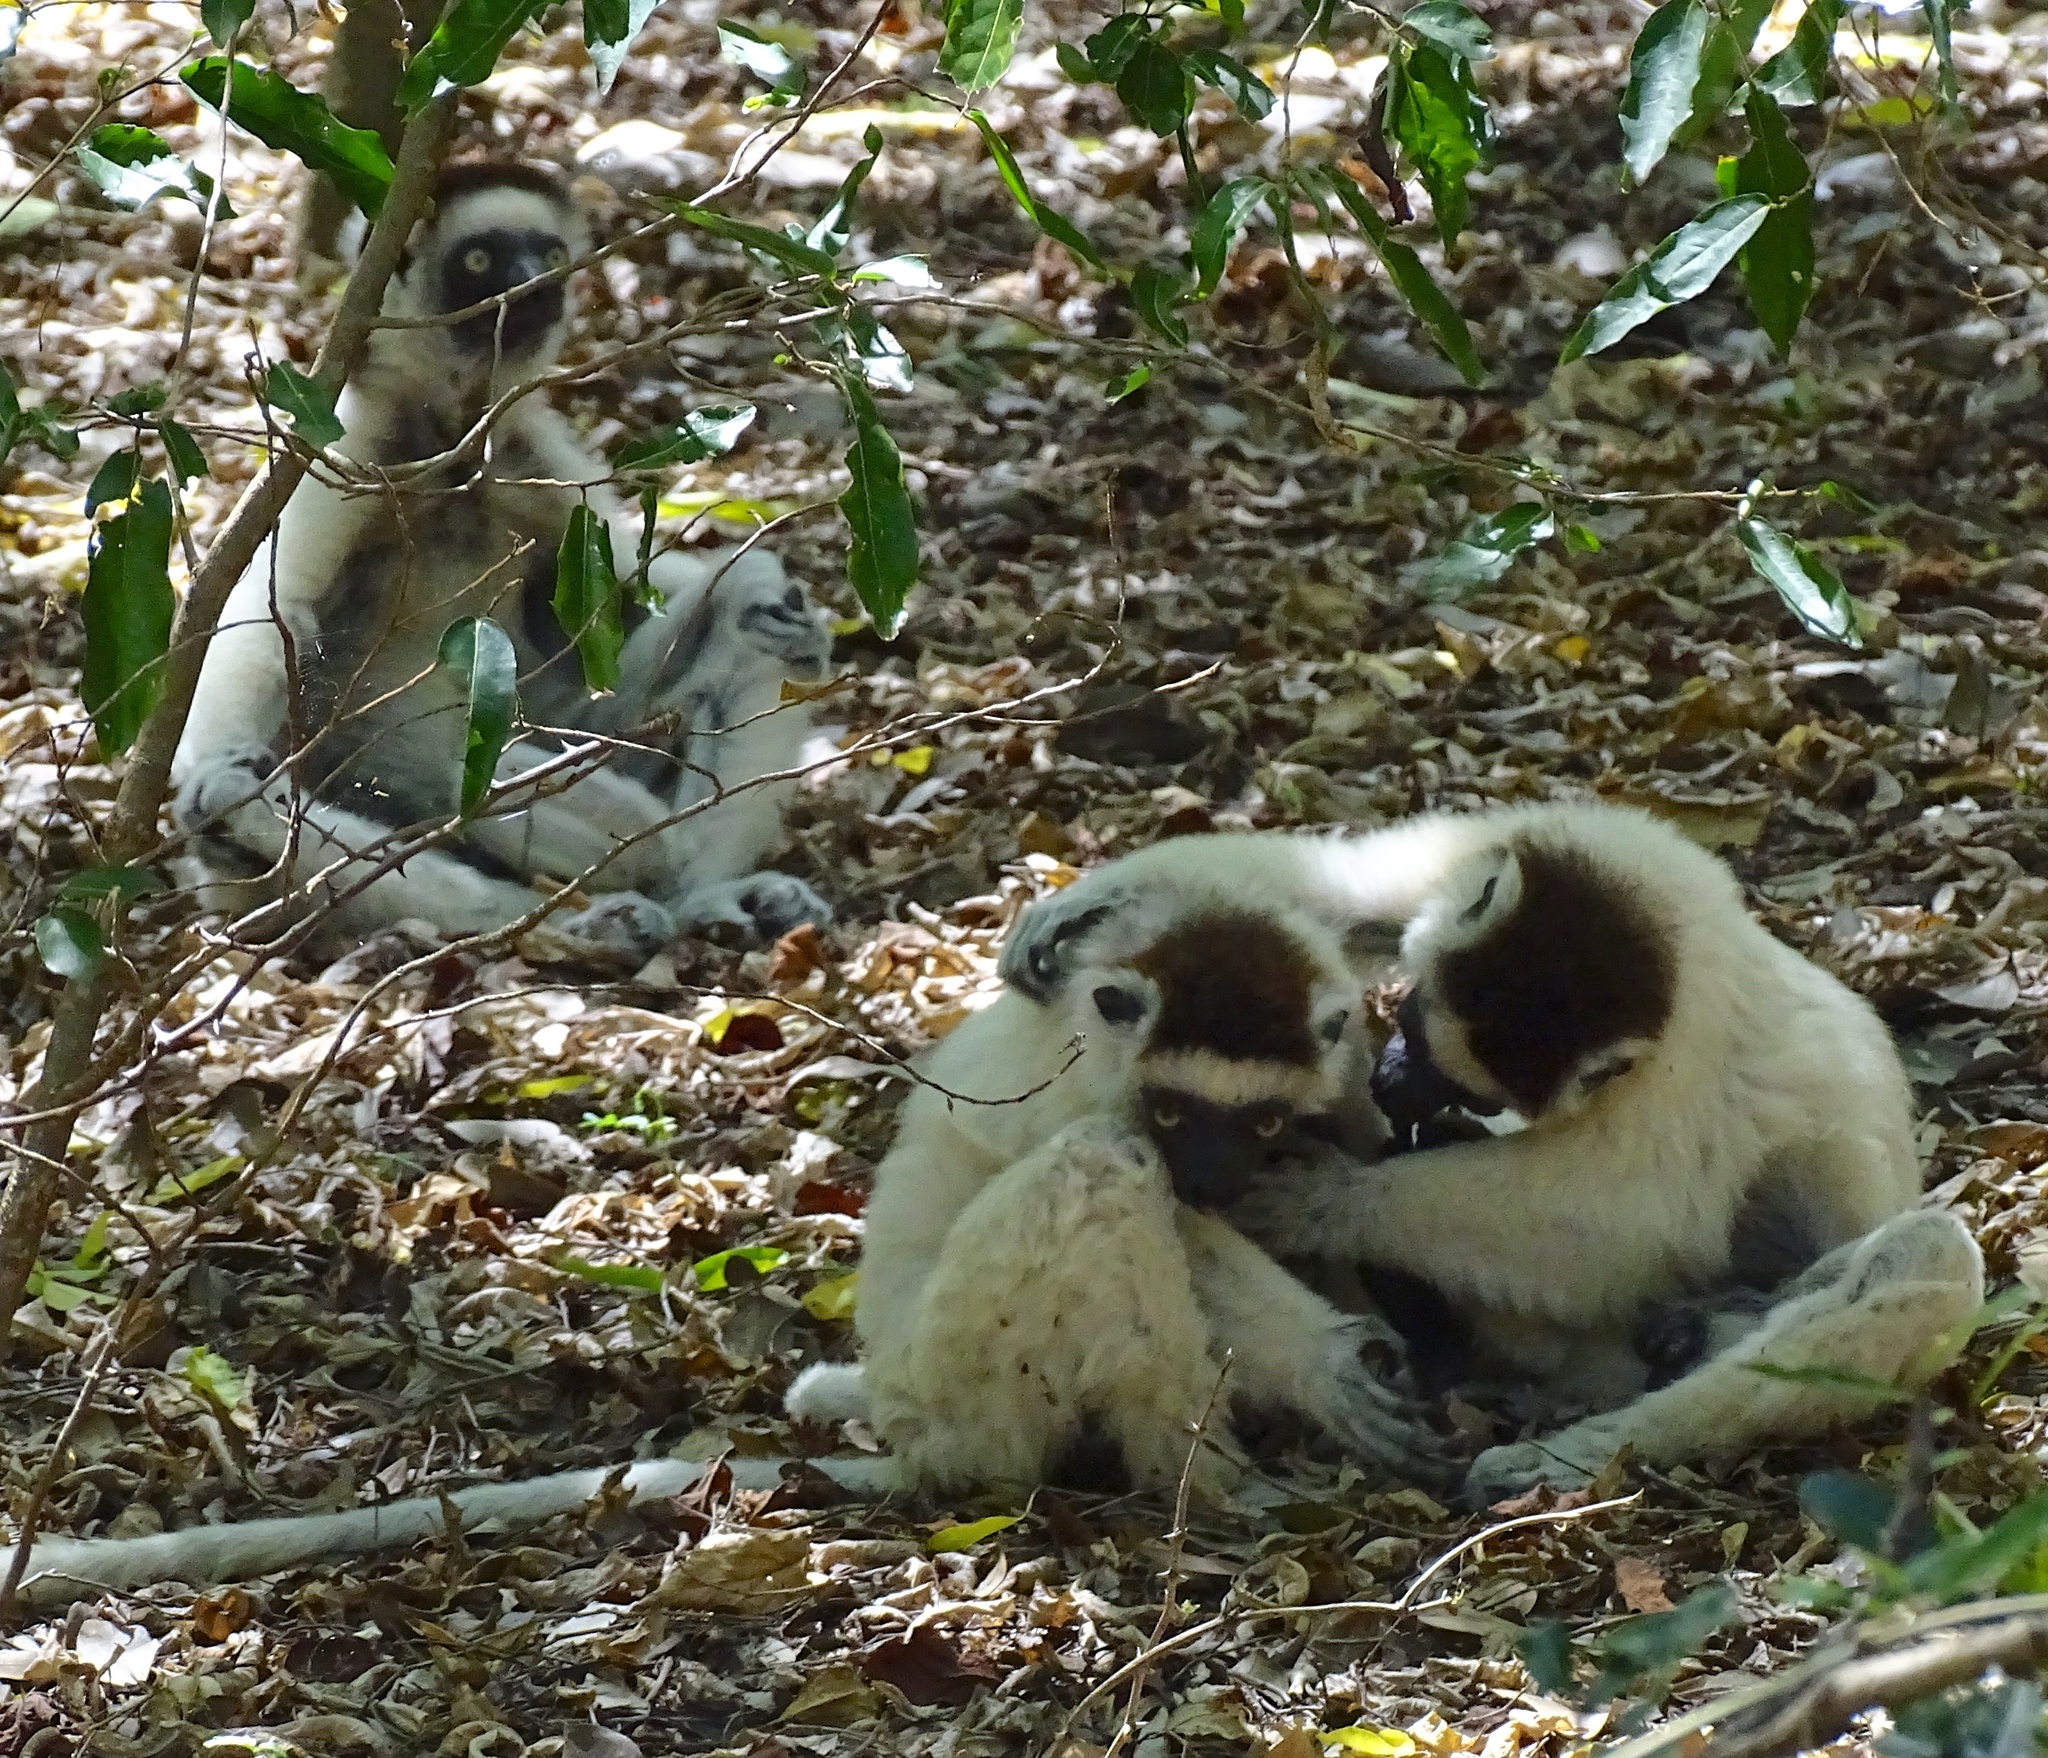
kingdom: Animalia
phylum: Chordata
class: Mammalia
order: Primates
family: Indriidae
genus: Propithecus
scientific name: Propithecus verreauxi
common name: Verreaux's sifaka
